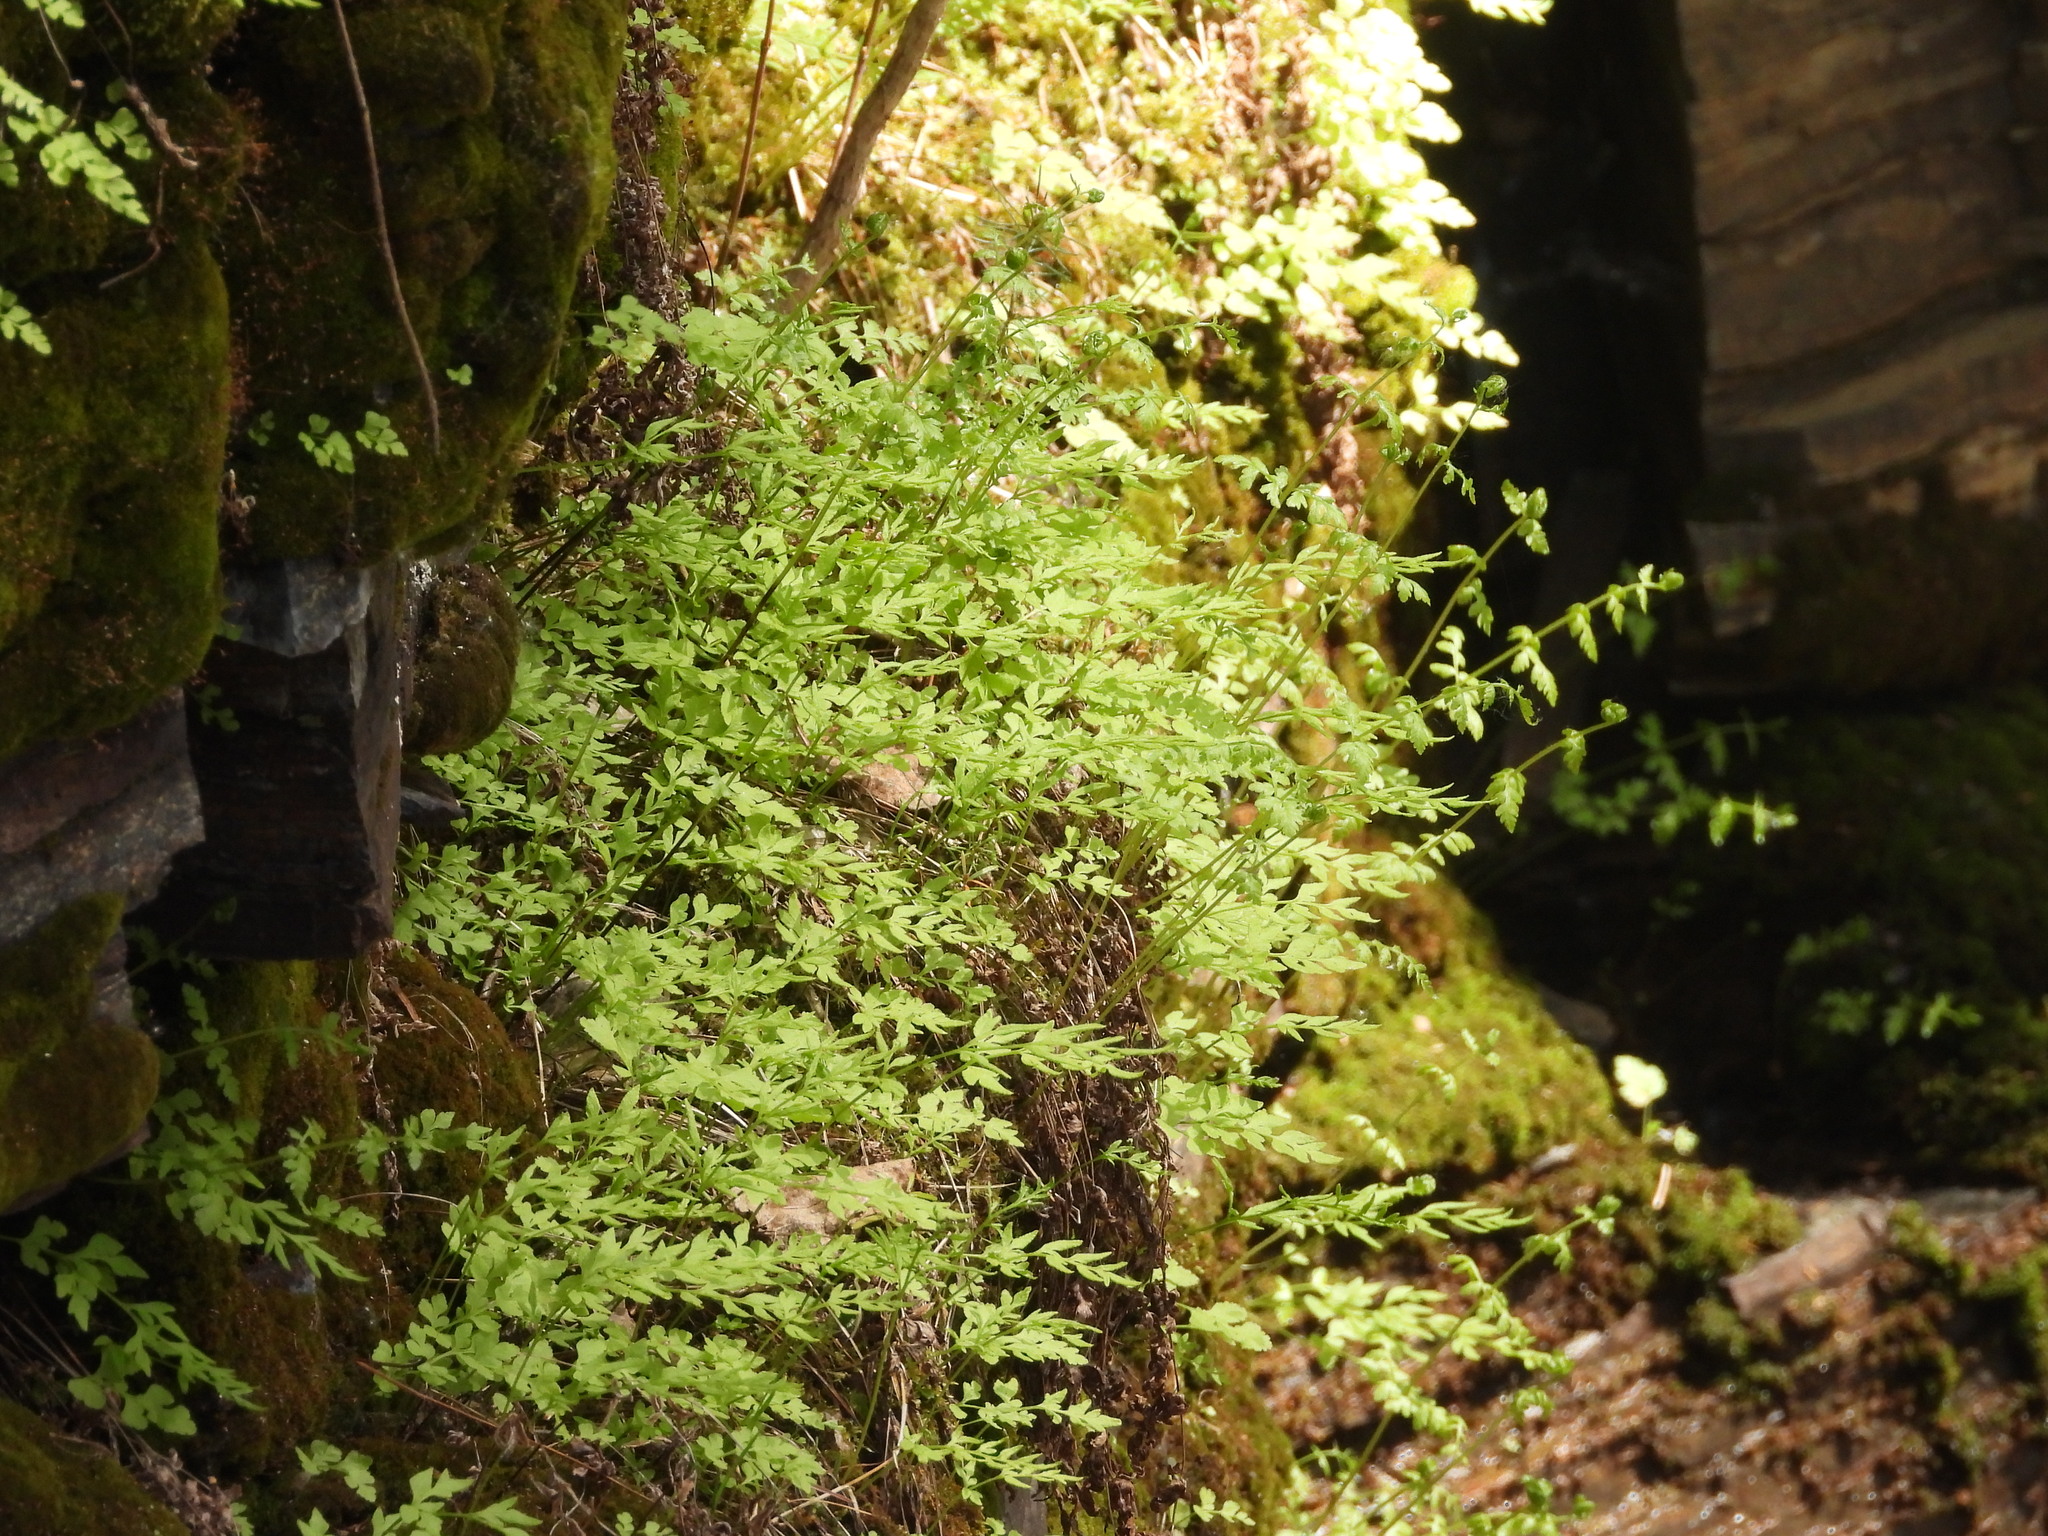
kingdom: Plantae
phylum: Tracheophyta
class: Polypodiopsida
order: Polypodiales
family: Pteridaceae
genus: Cryptogramma
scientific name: Cryptogramma stelleri
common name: Cliff-brake
